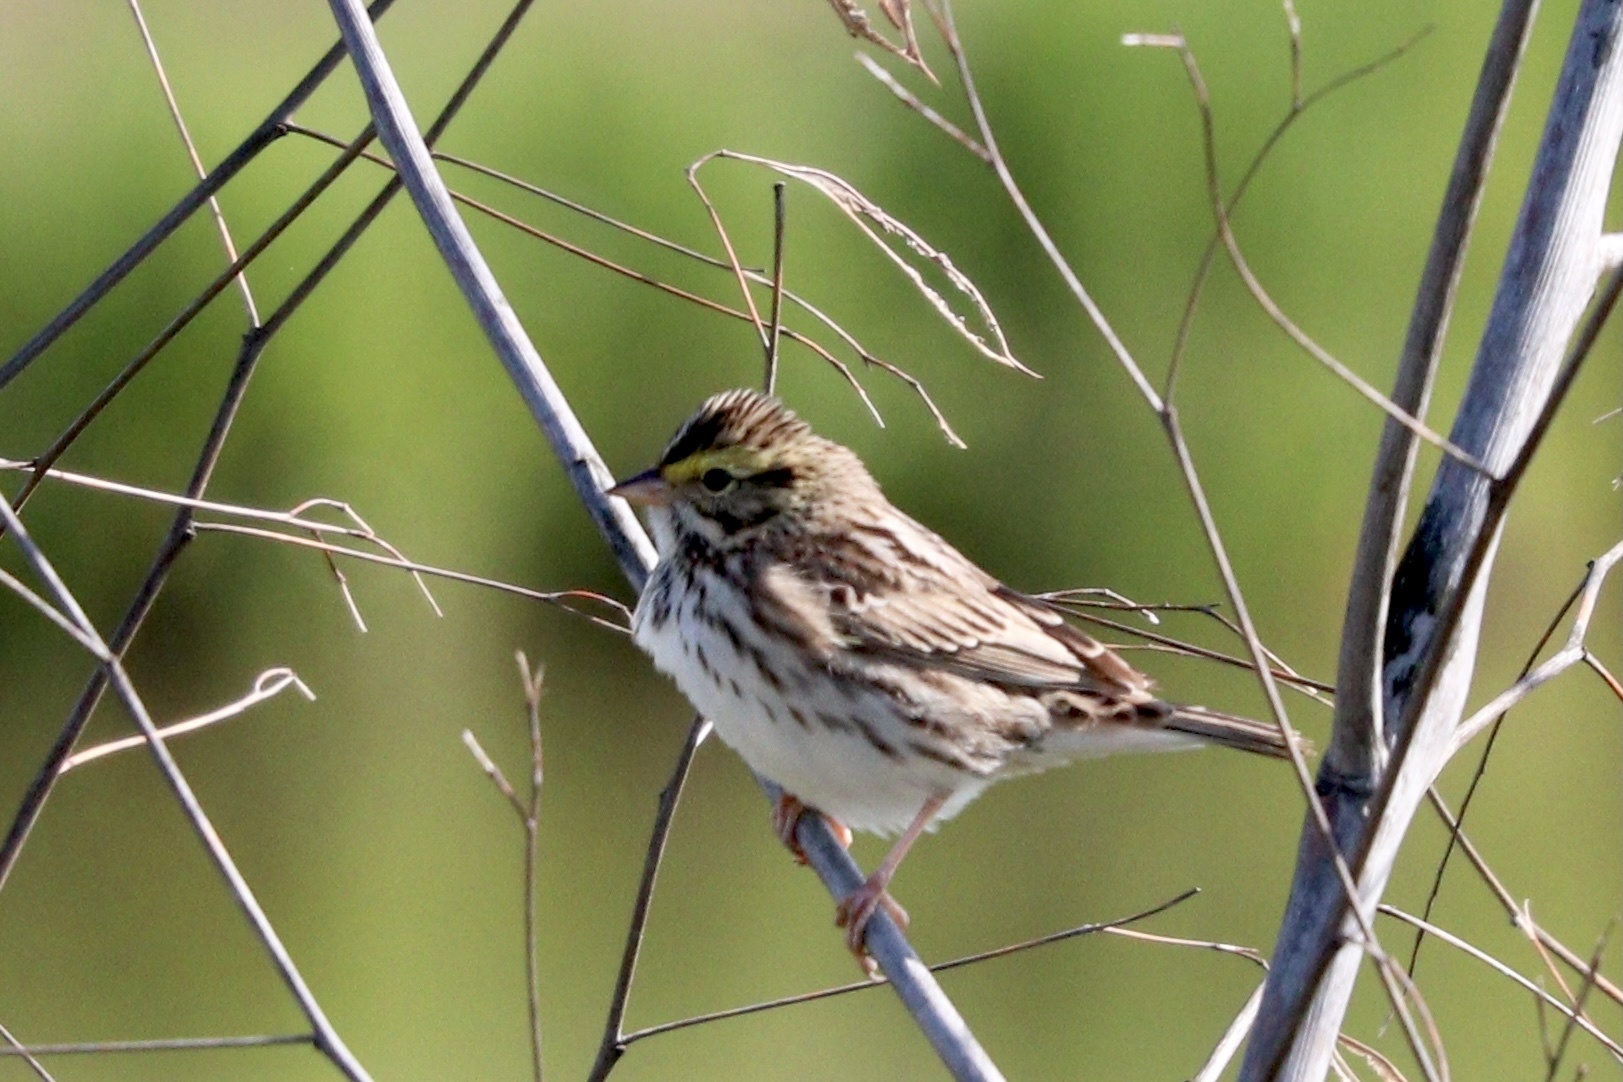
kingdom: Animalia
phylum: Chordata
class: Aves
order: Passeriformes
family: Passerellidae
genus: Passerculus
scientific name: Passerculus sandwichensis
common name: Savannah sparrow
